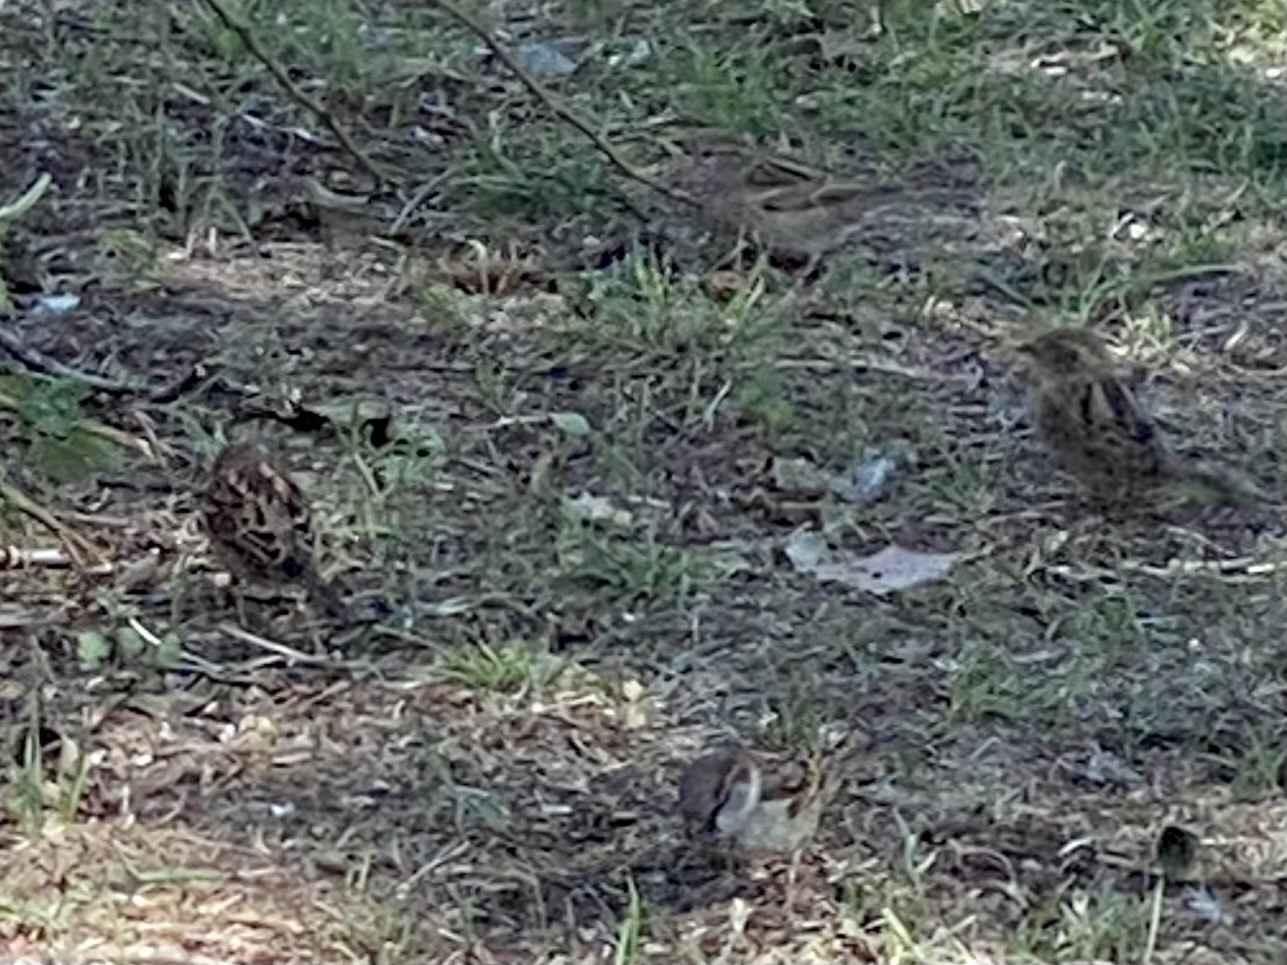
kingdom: Animalia
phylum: Chordata
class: Aves
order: Passeriformes
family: Passeridae
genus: Passer
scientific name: Passer domesticus
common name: House sparrow
